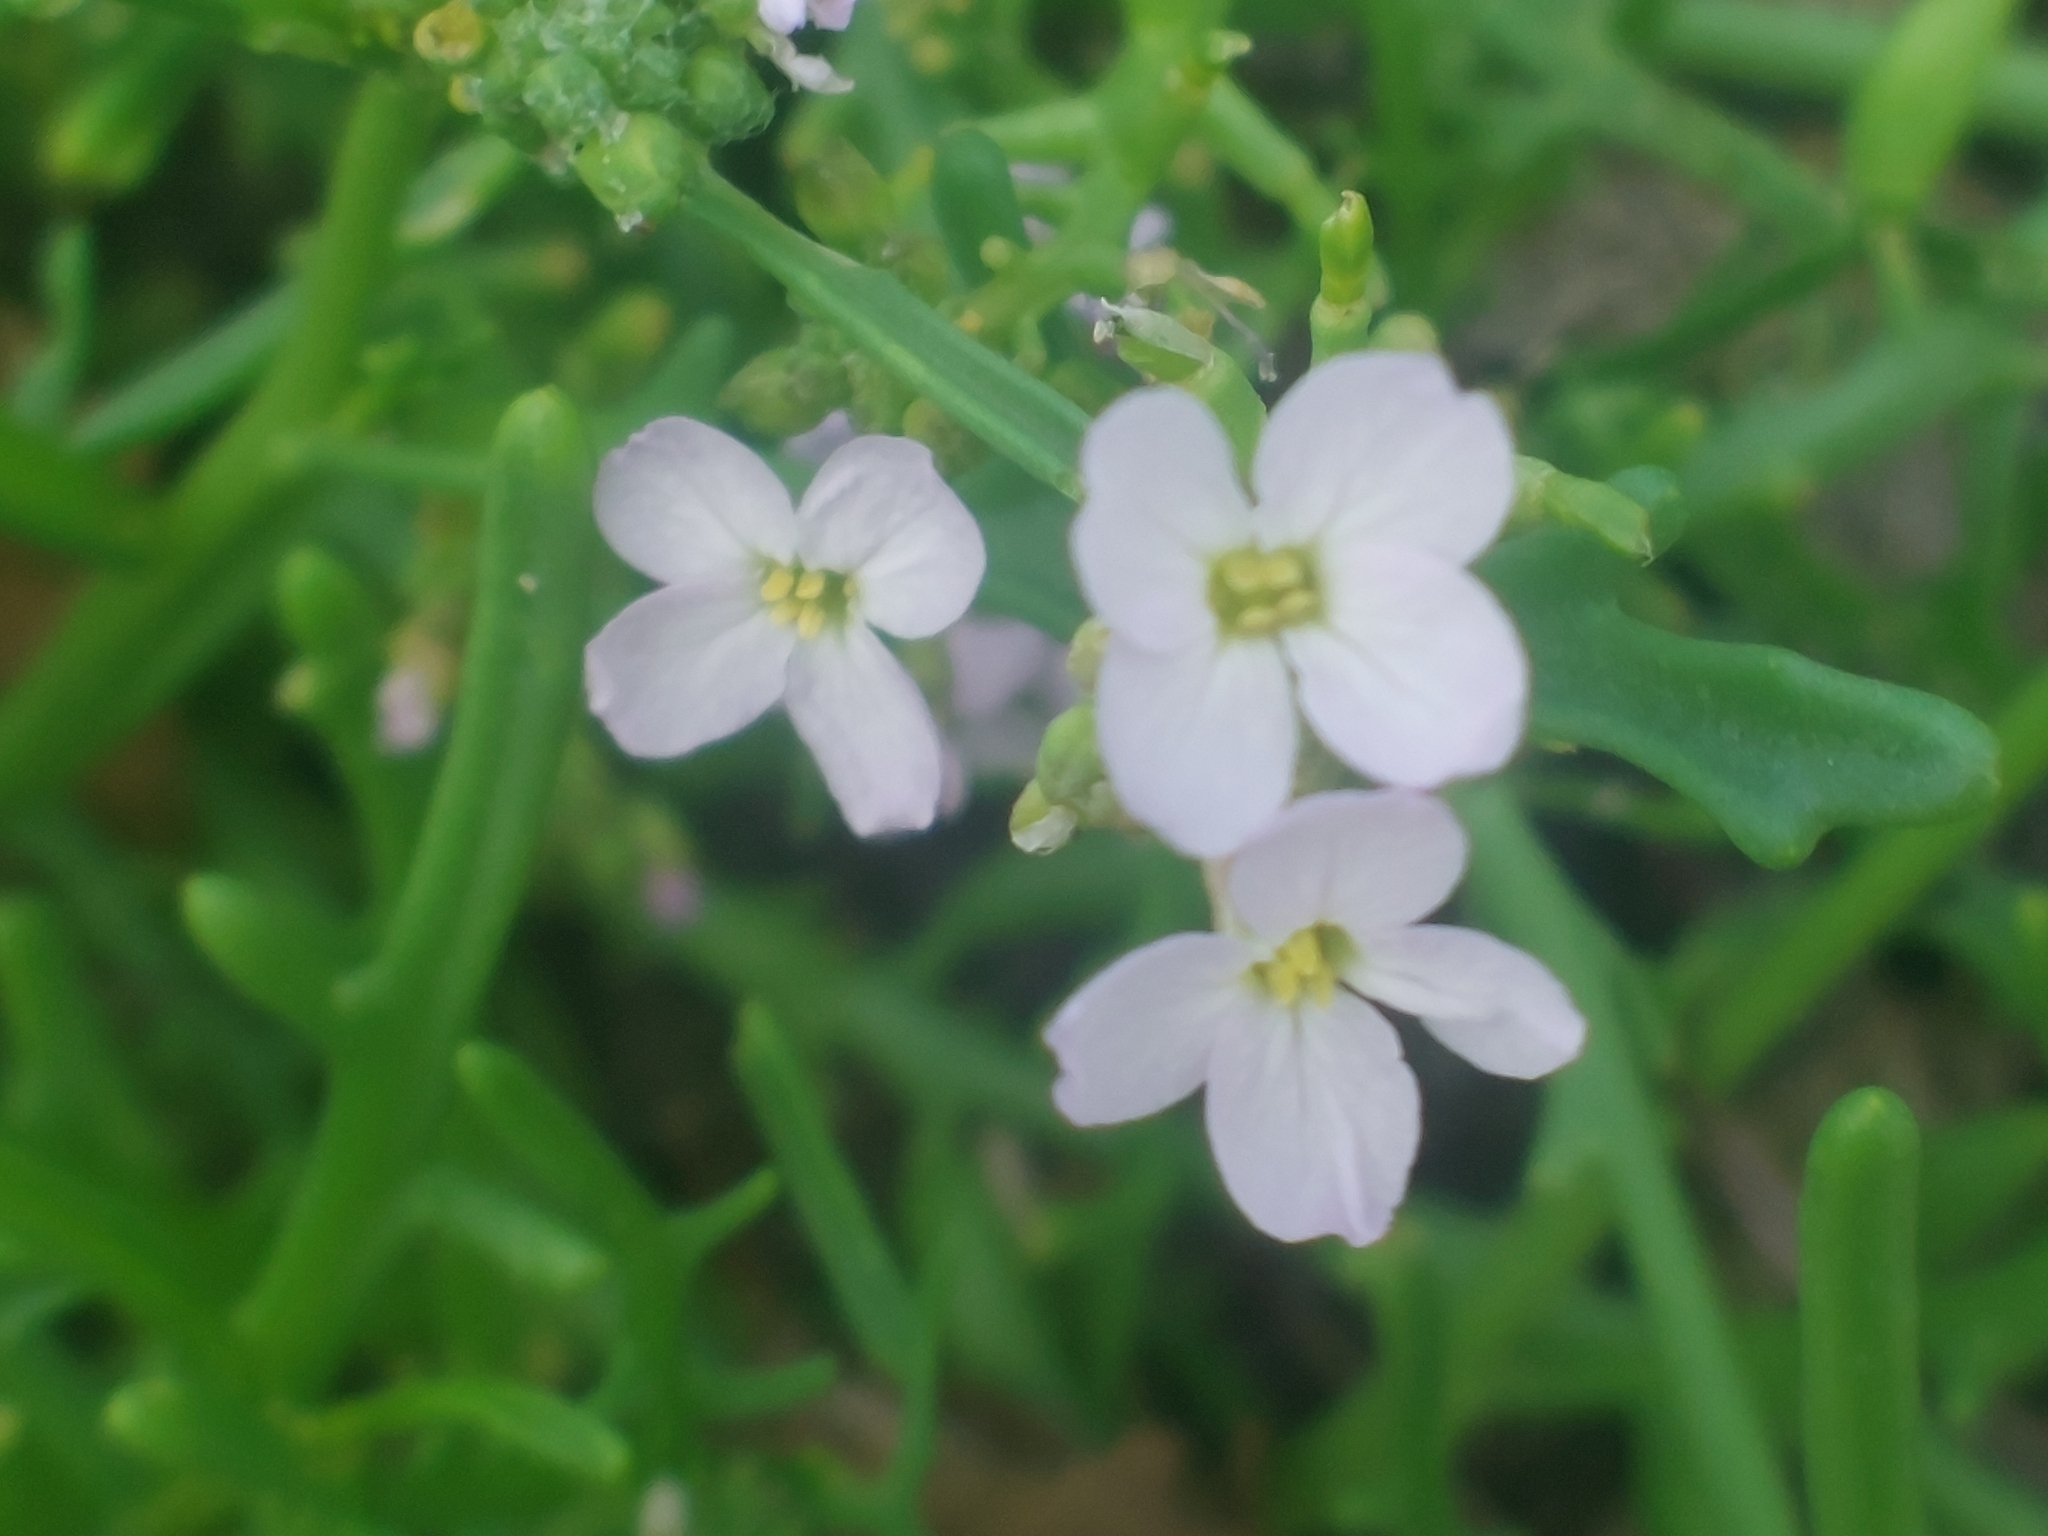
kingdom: Plantae
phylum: Tracheophyta
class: Magnoliopsida
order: Brassicales
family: Brassicaceae
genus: Cakile
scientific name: Cakile maritima
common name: Sea rocket
